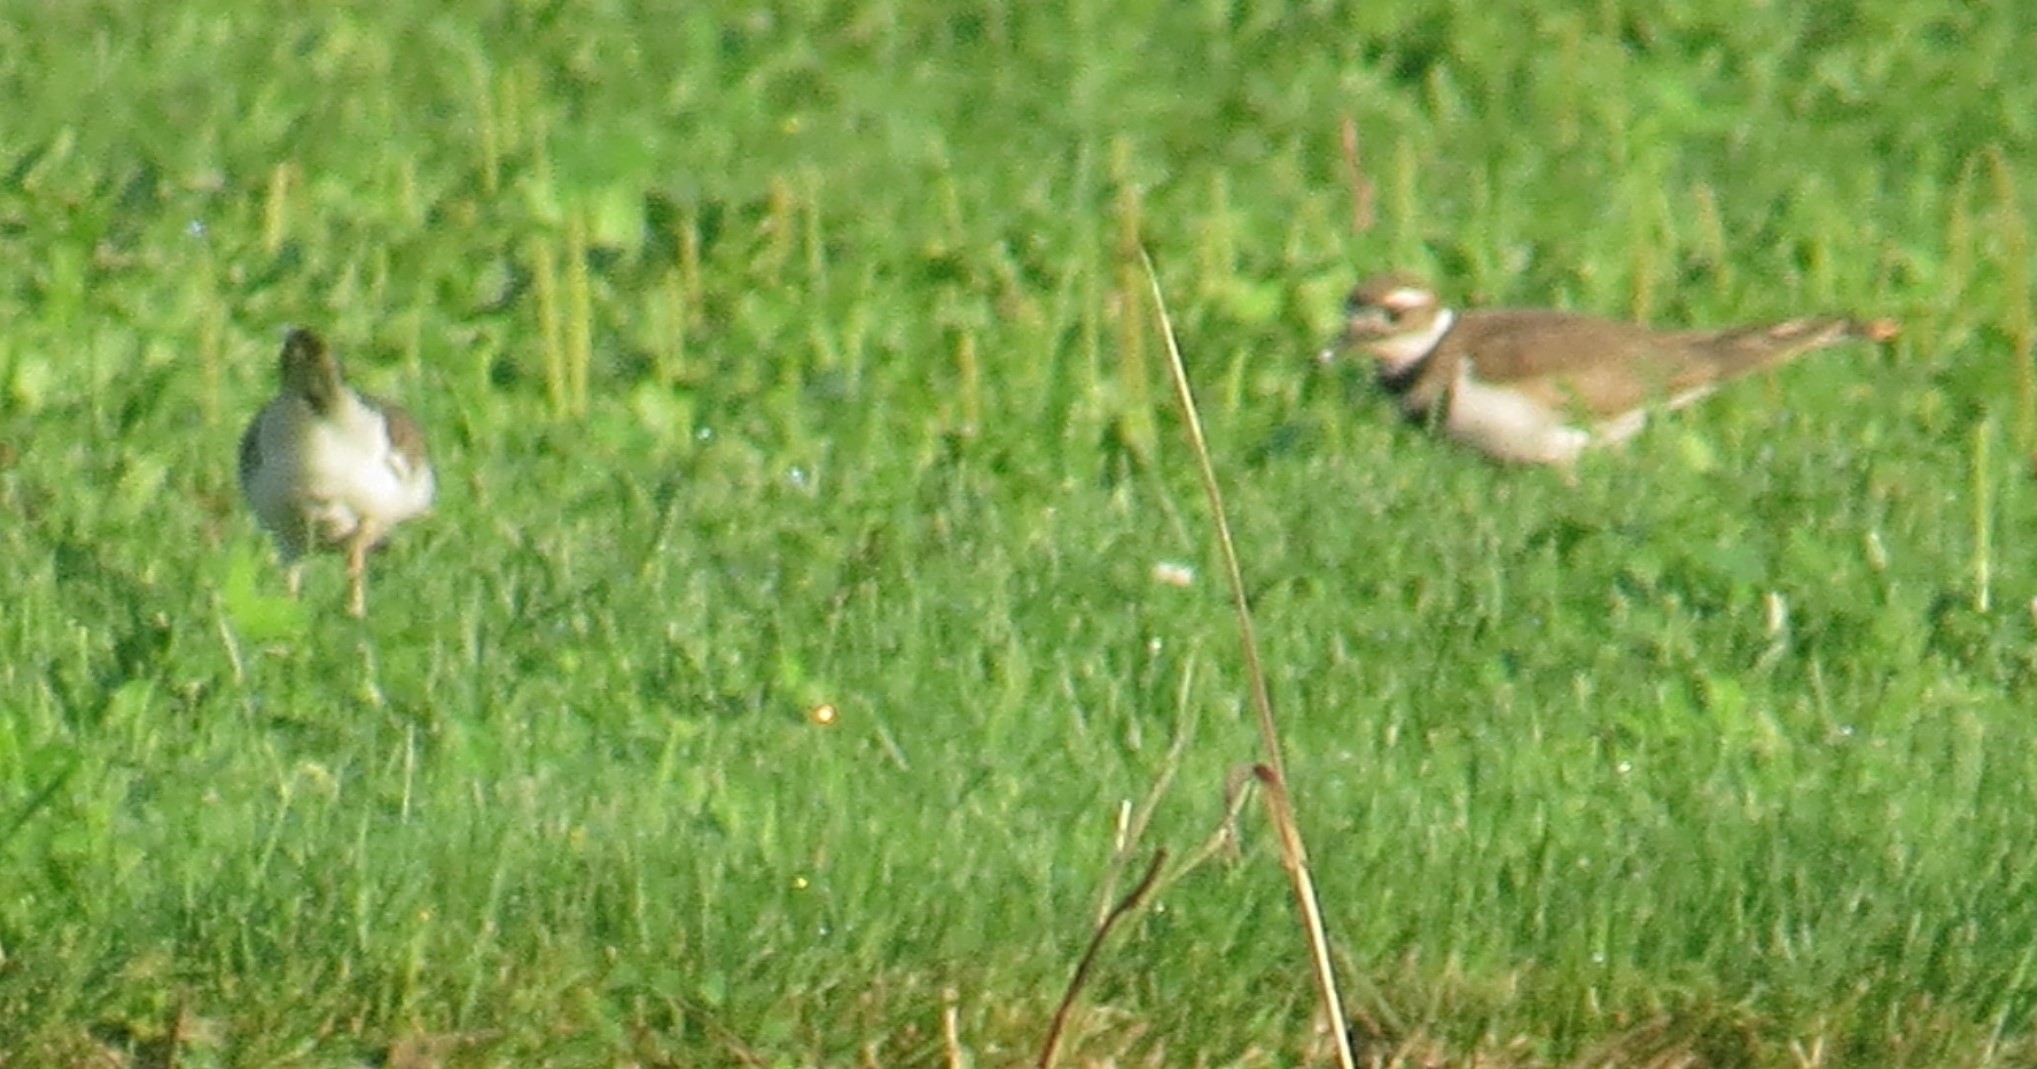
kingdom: Animalia
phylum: Chordata
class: Aves
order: Charadriiformes
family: Charadriidae
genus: Charadrius
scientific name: Charadrius vociferus
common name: Killdeer
